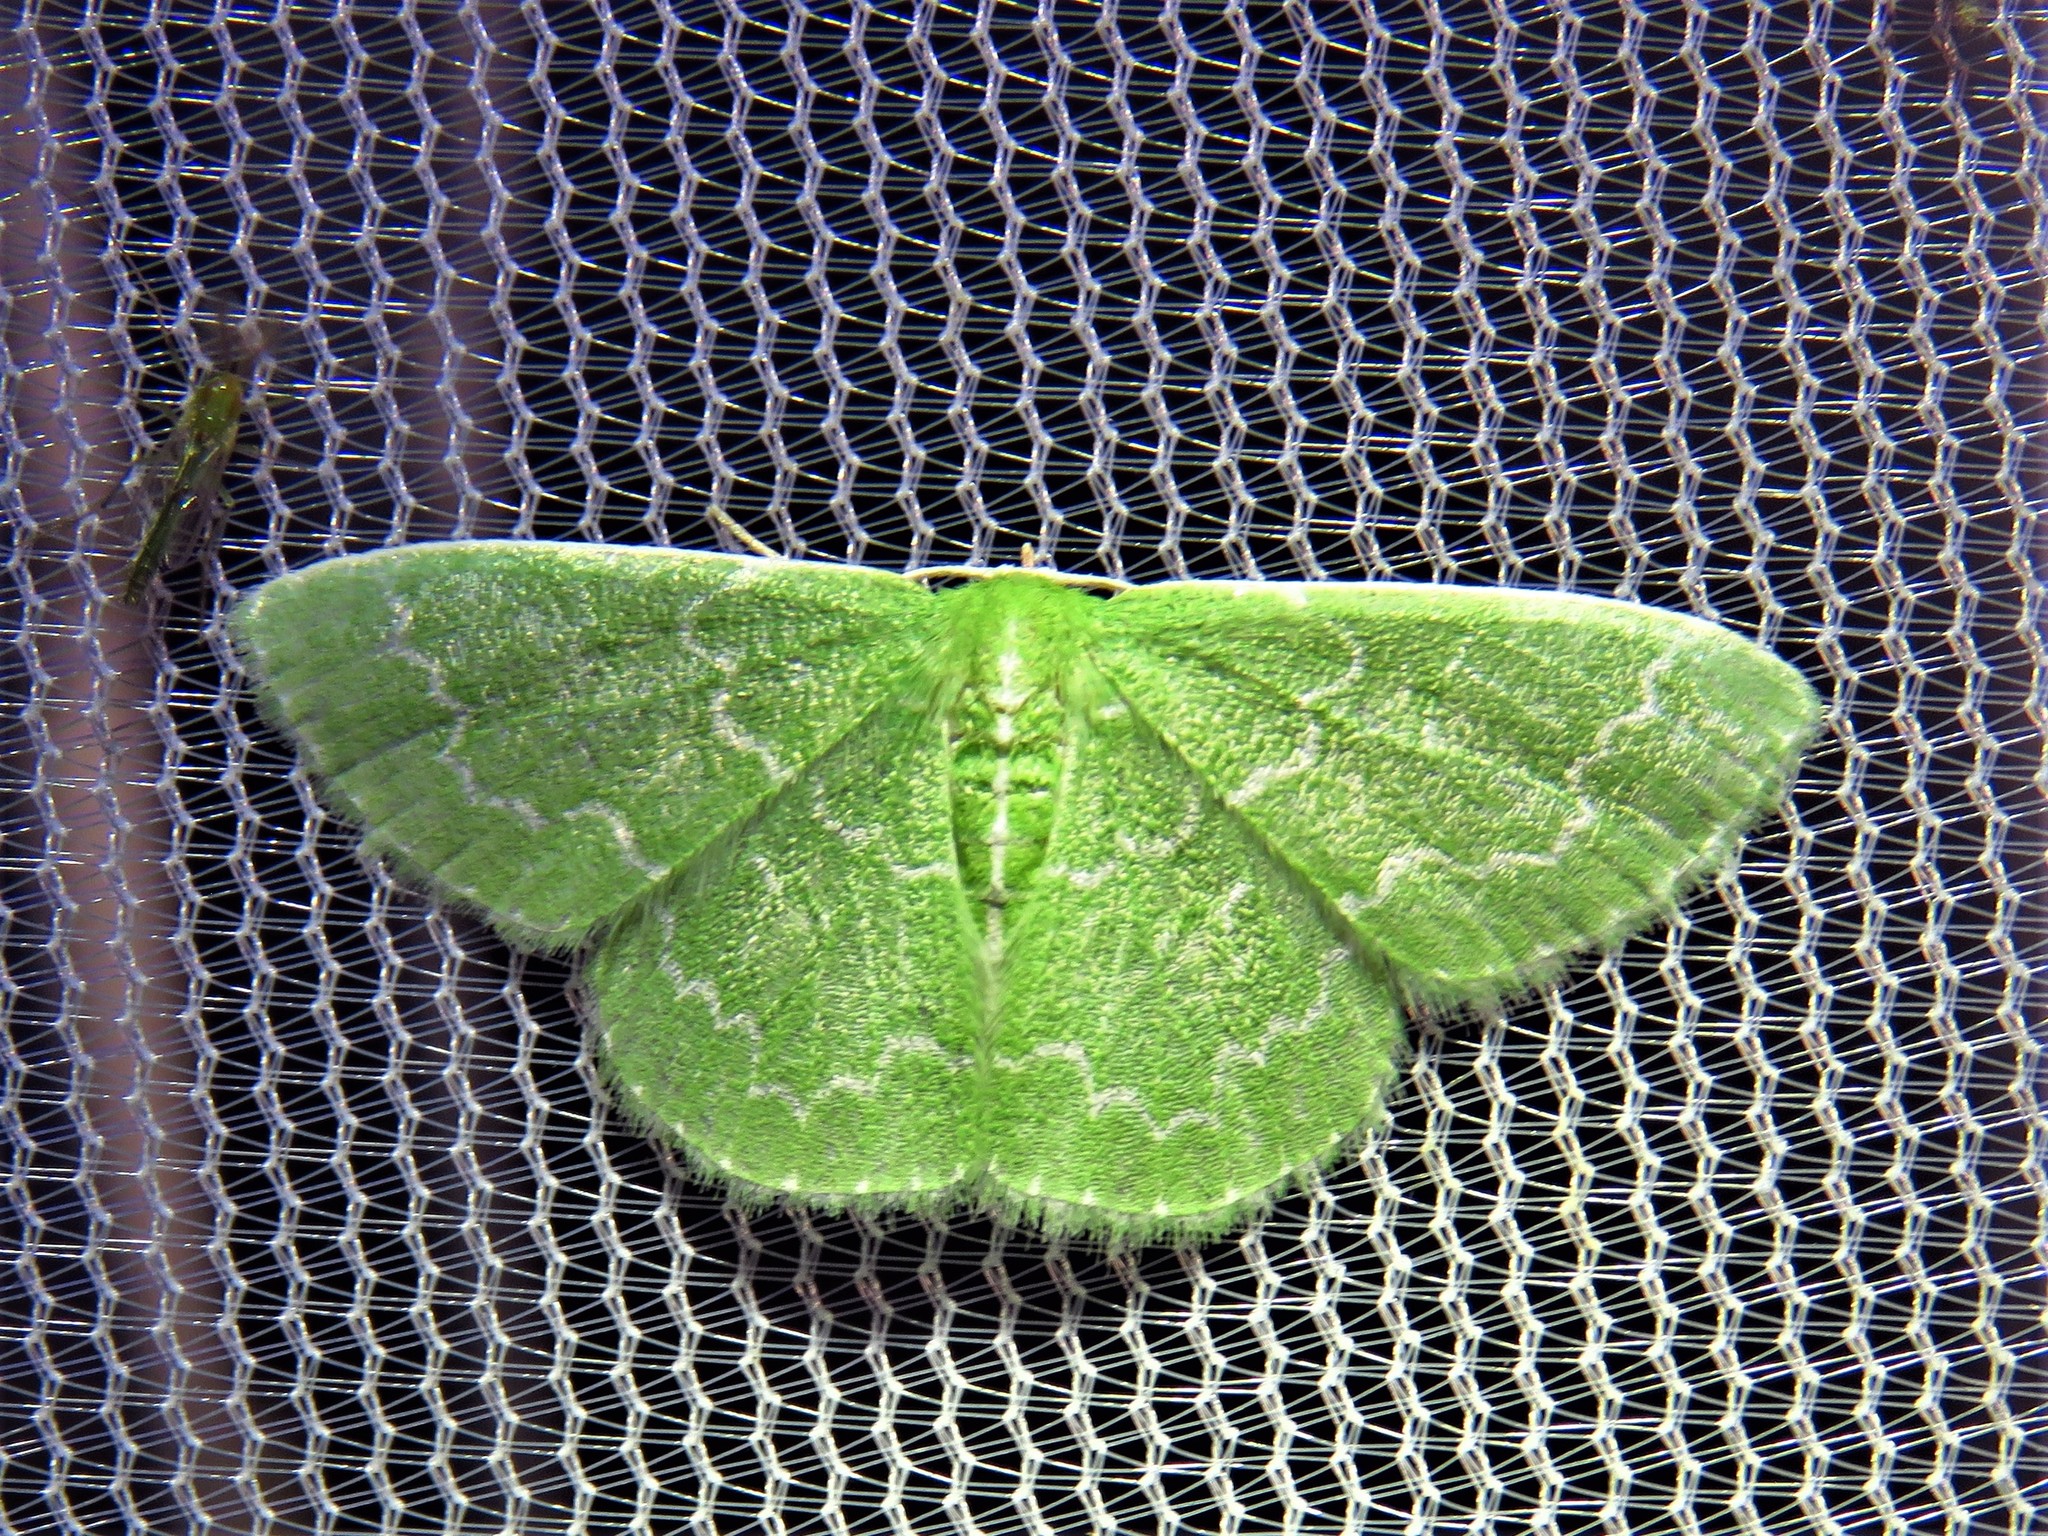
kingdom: Animalia
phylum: Arthropoda
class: Insecta
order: Lepidoptera
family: Geometridae
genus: Synchlora
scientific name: Synchlora frondaria
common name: Southern emerald
